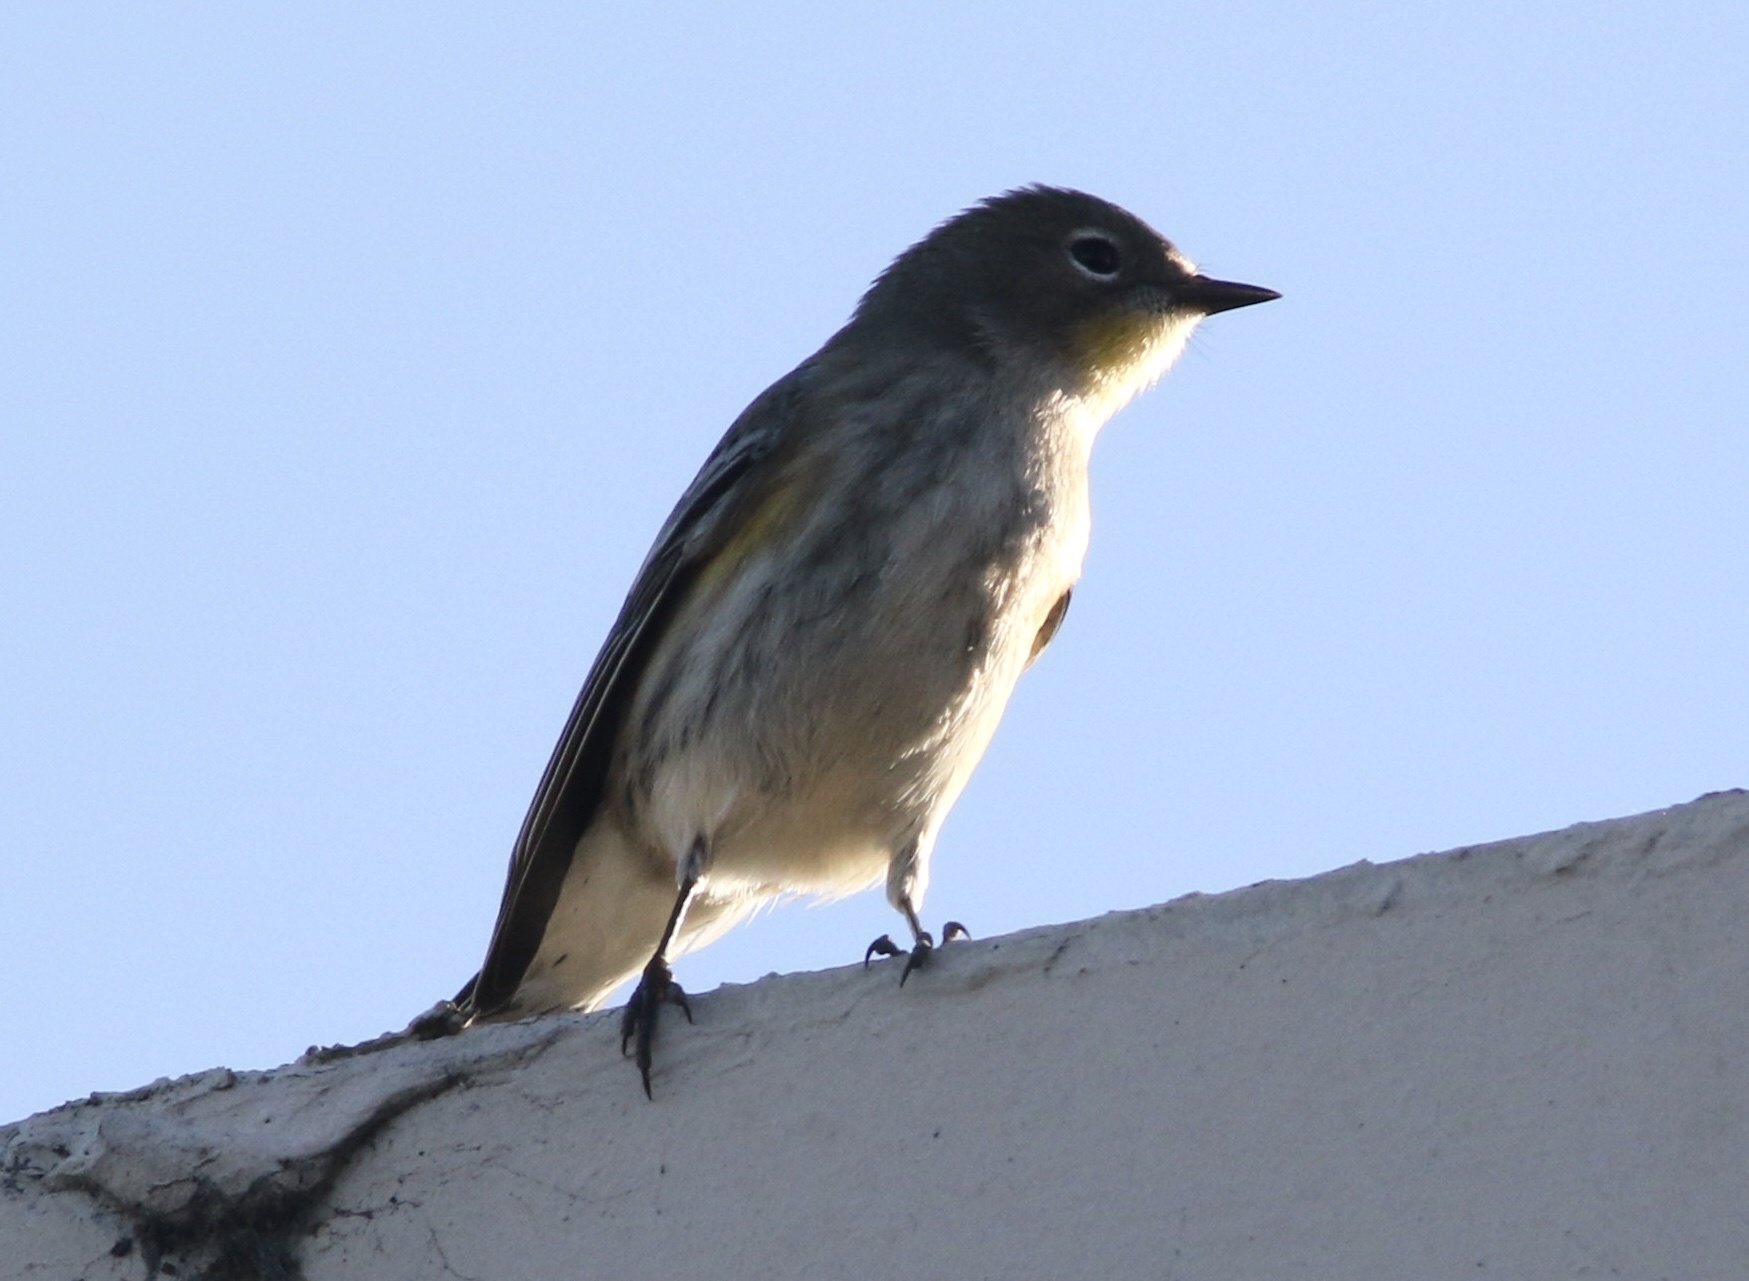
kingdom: Animalia
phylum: Chordata
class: Aves
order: Passeriformes
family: Parulidae
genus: Setophaga
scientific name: Setophaga coronata
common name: Myrtle warbler
